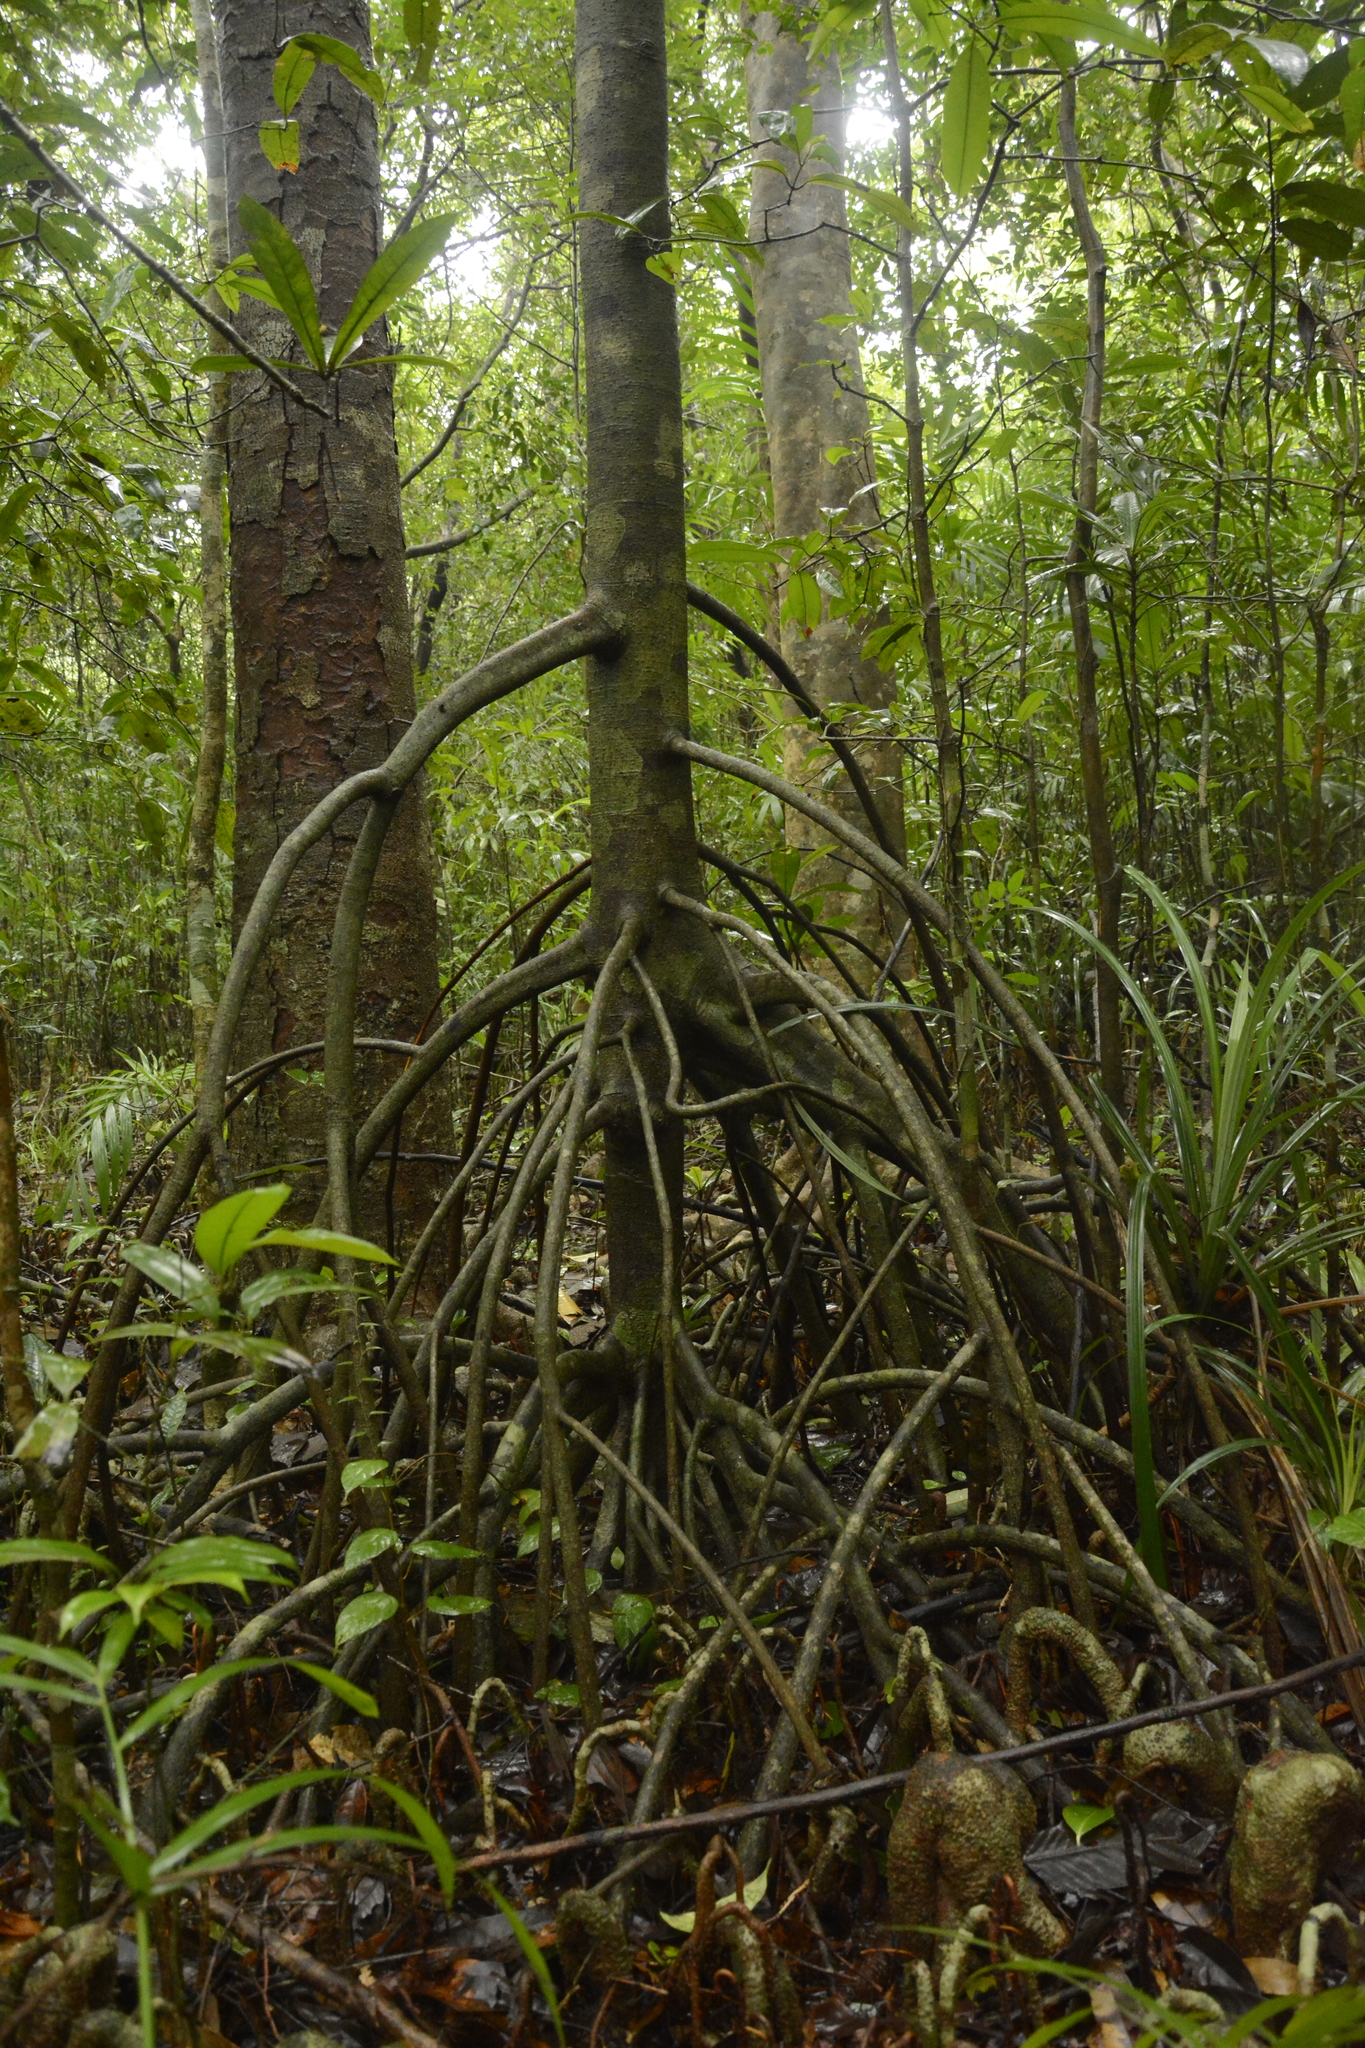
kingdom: Plantae
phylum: Tracheophyta
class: Magnoliopsida
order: Magnoliales
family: Myristicaceae
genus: Myristica
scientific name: Myristica magnifica
